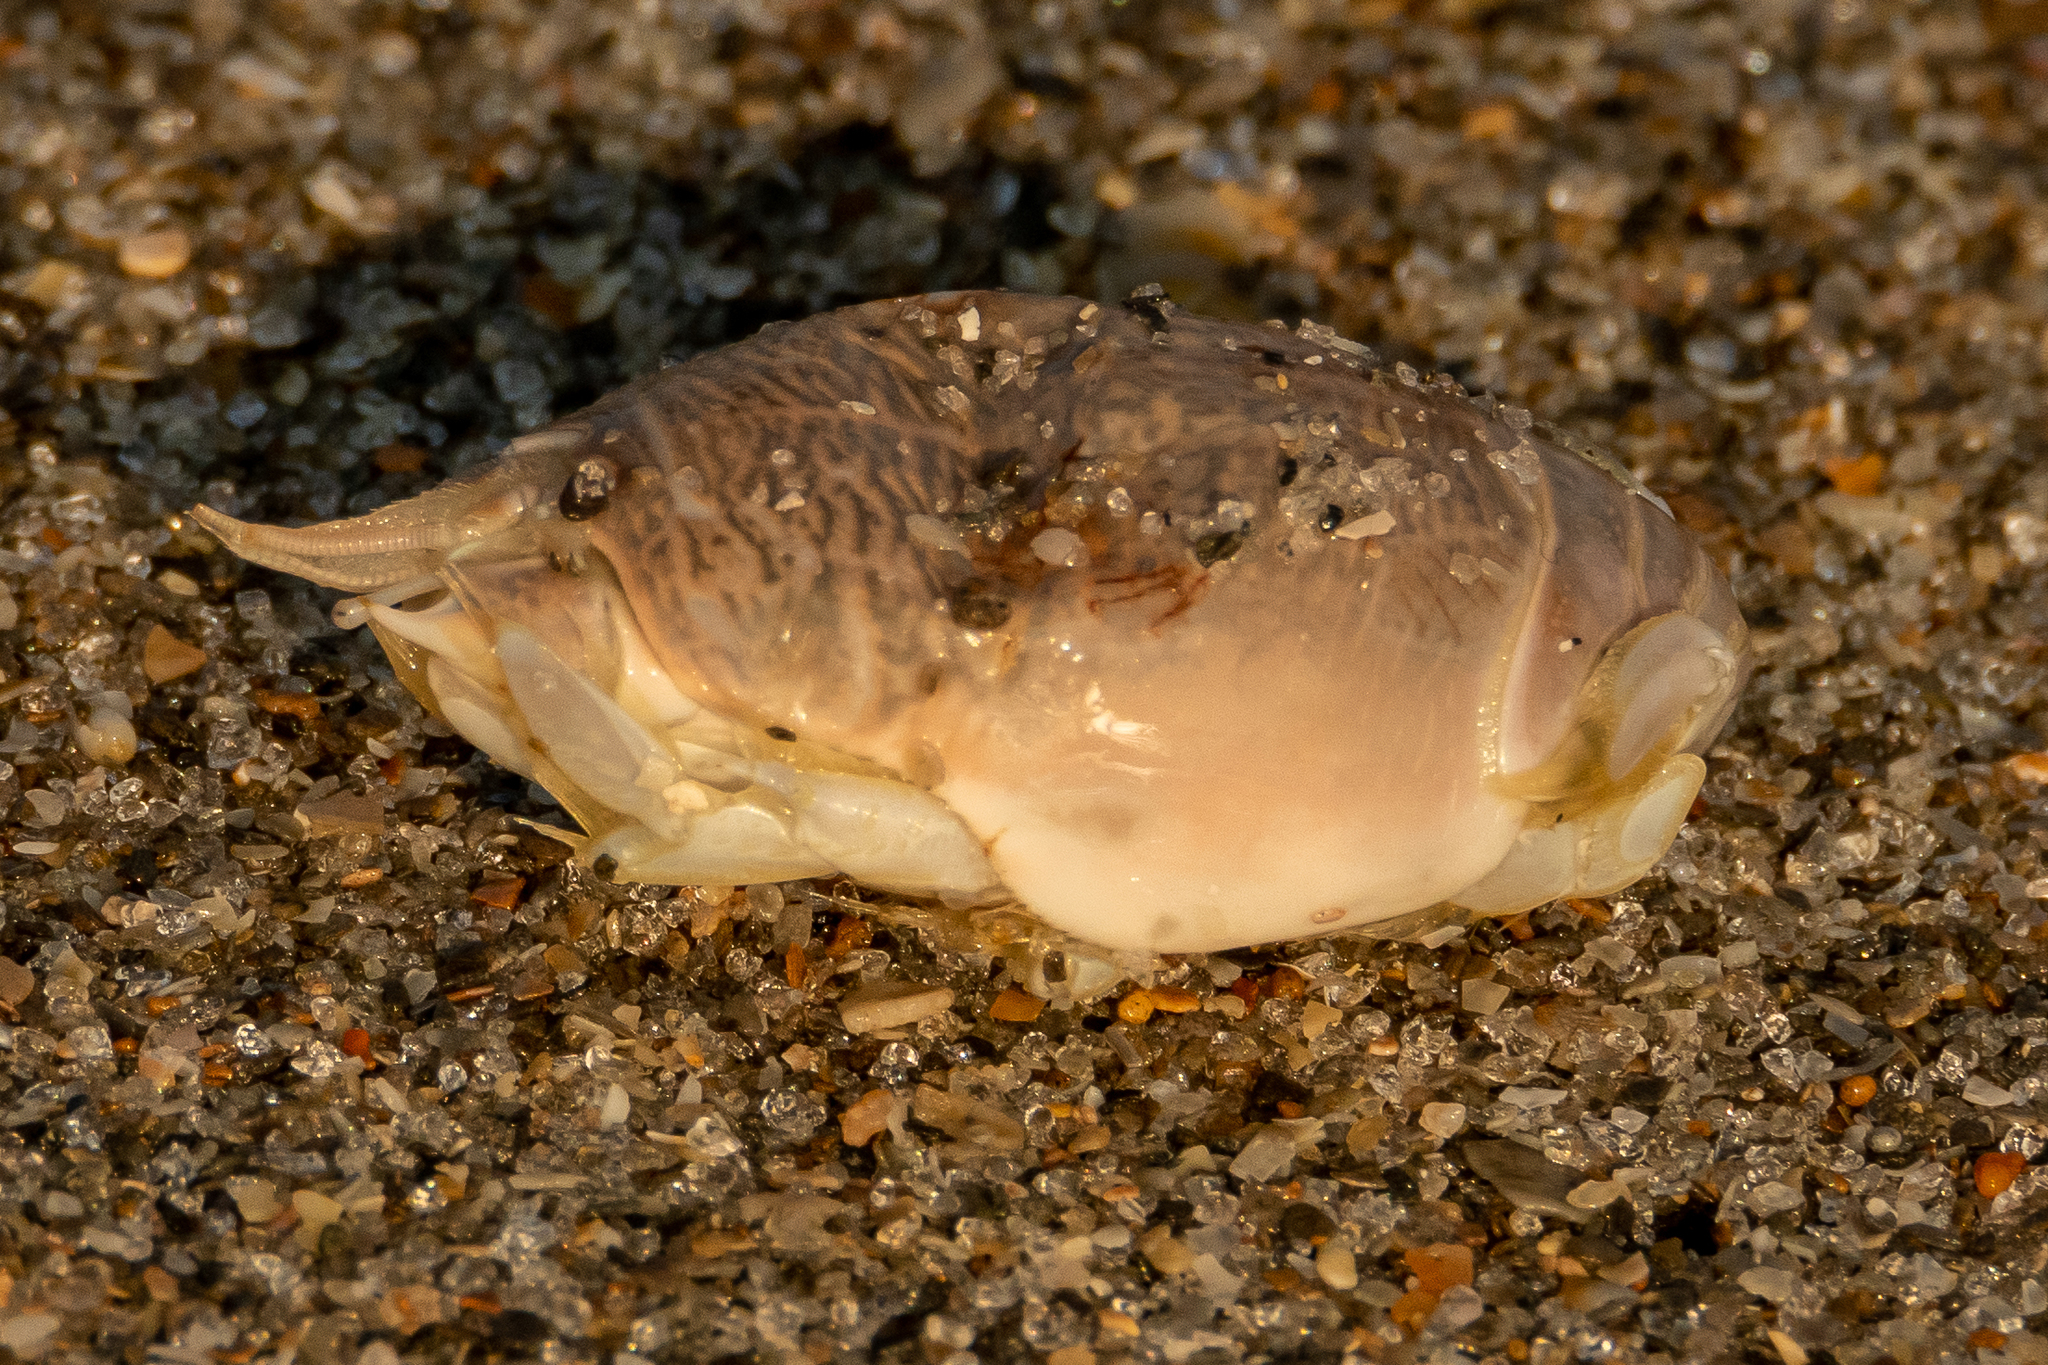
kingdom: Animalia
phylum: Arthropoda
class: Malacostraca
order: Decapoda
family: Hippidae
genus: Emerita
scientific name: Emerita talpoida
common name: Atlantic sand crab
